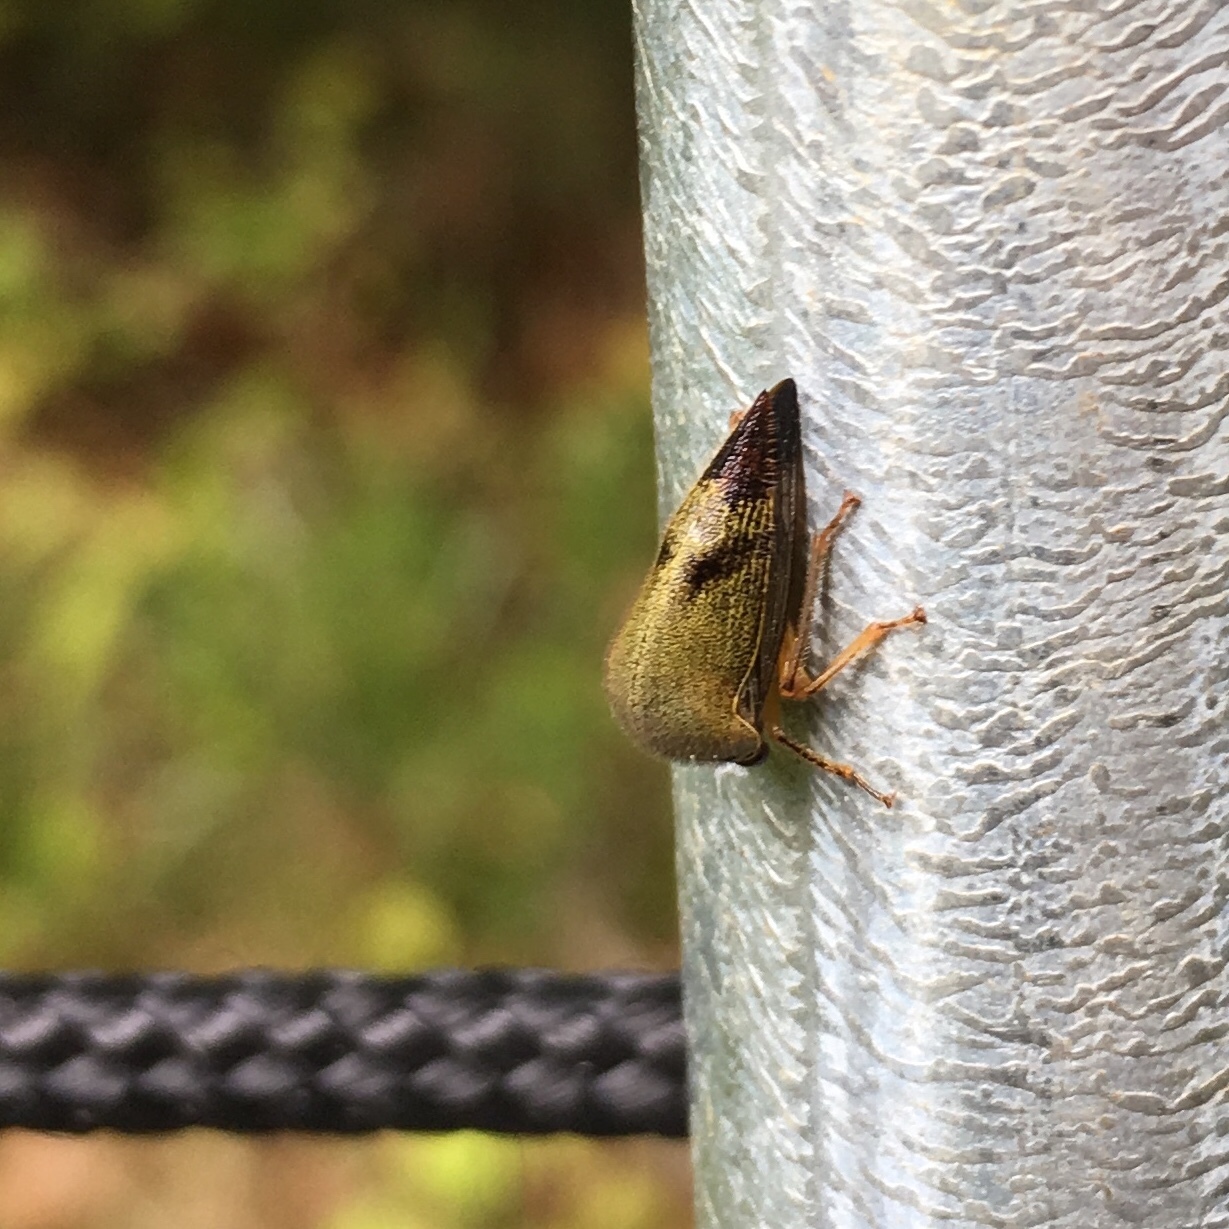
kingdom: Animalia
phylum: Arthropoda
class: Insecta
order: Hemiptera
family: Membracidae
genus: Carynota
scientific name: Carynota mera
